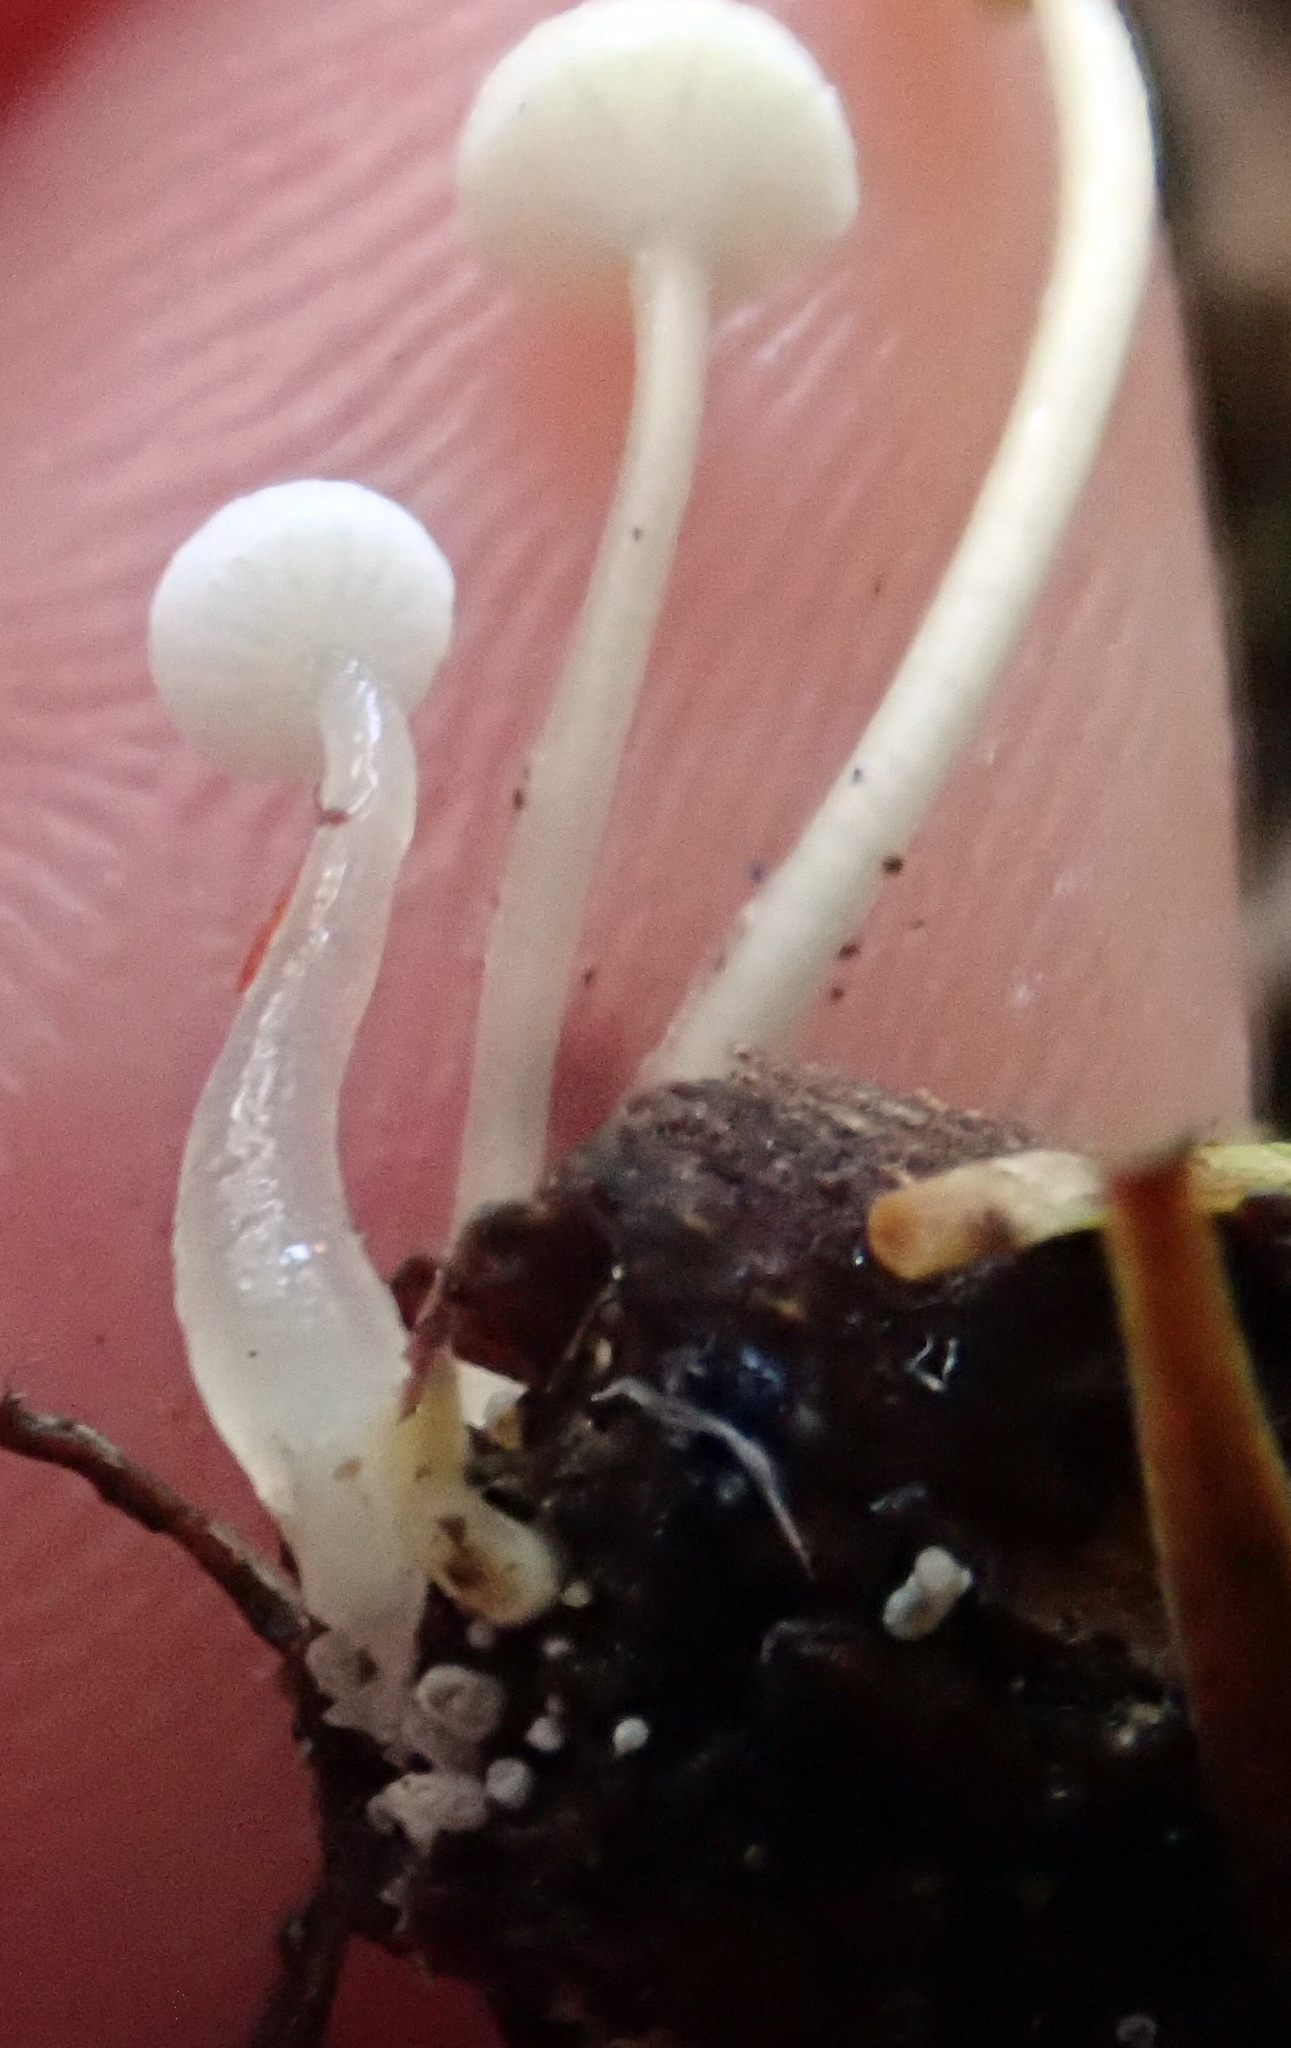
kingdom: Fungi
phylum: Basidiomycota
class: Agaricomycetes
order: Agaricales
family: Mycenaceae
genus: Roridomyces
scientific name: Roridomyces austrororidus
